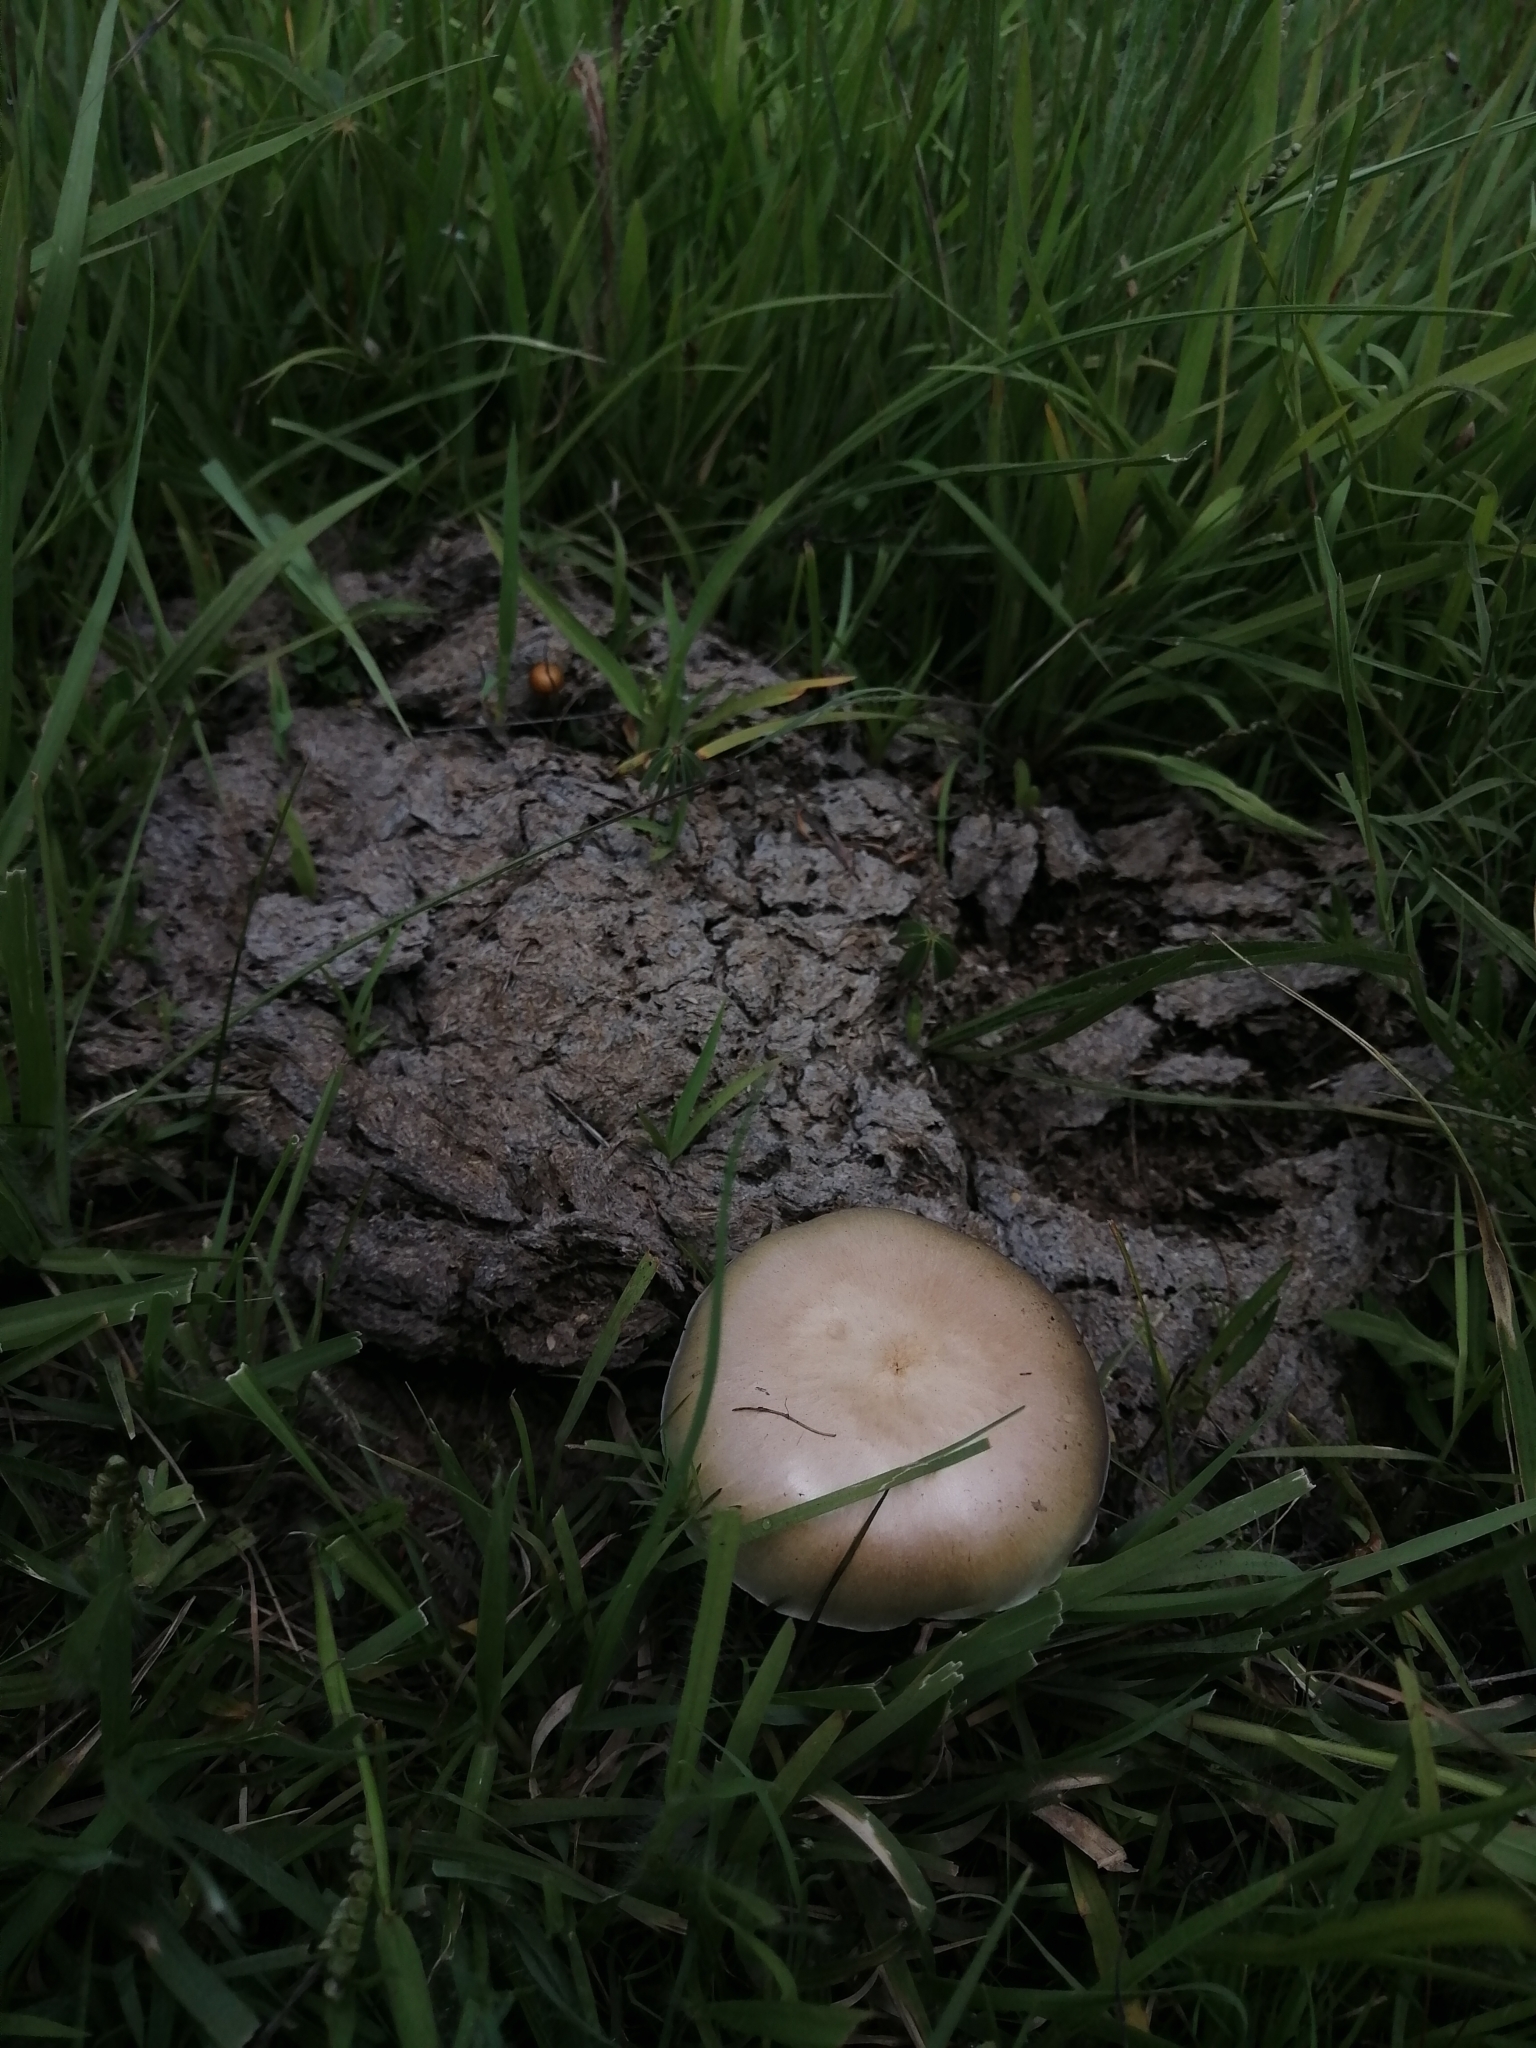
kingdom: Fungi
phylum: Basidiomycota
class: Agaricomycetes
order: Agaricales
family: Hymenogastraceae
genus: Psilocybe
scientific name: Psilocybe cubensis
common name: Golden brownie
